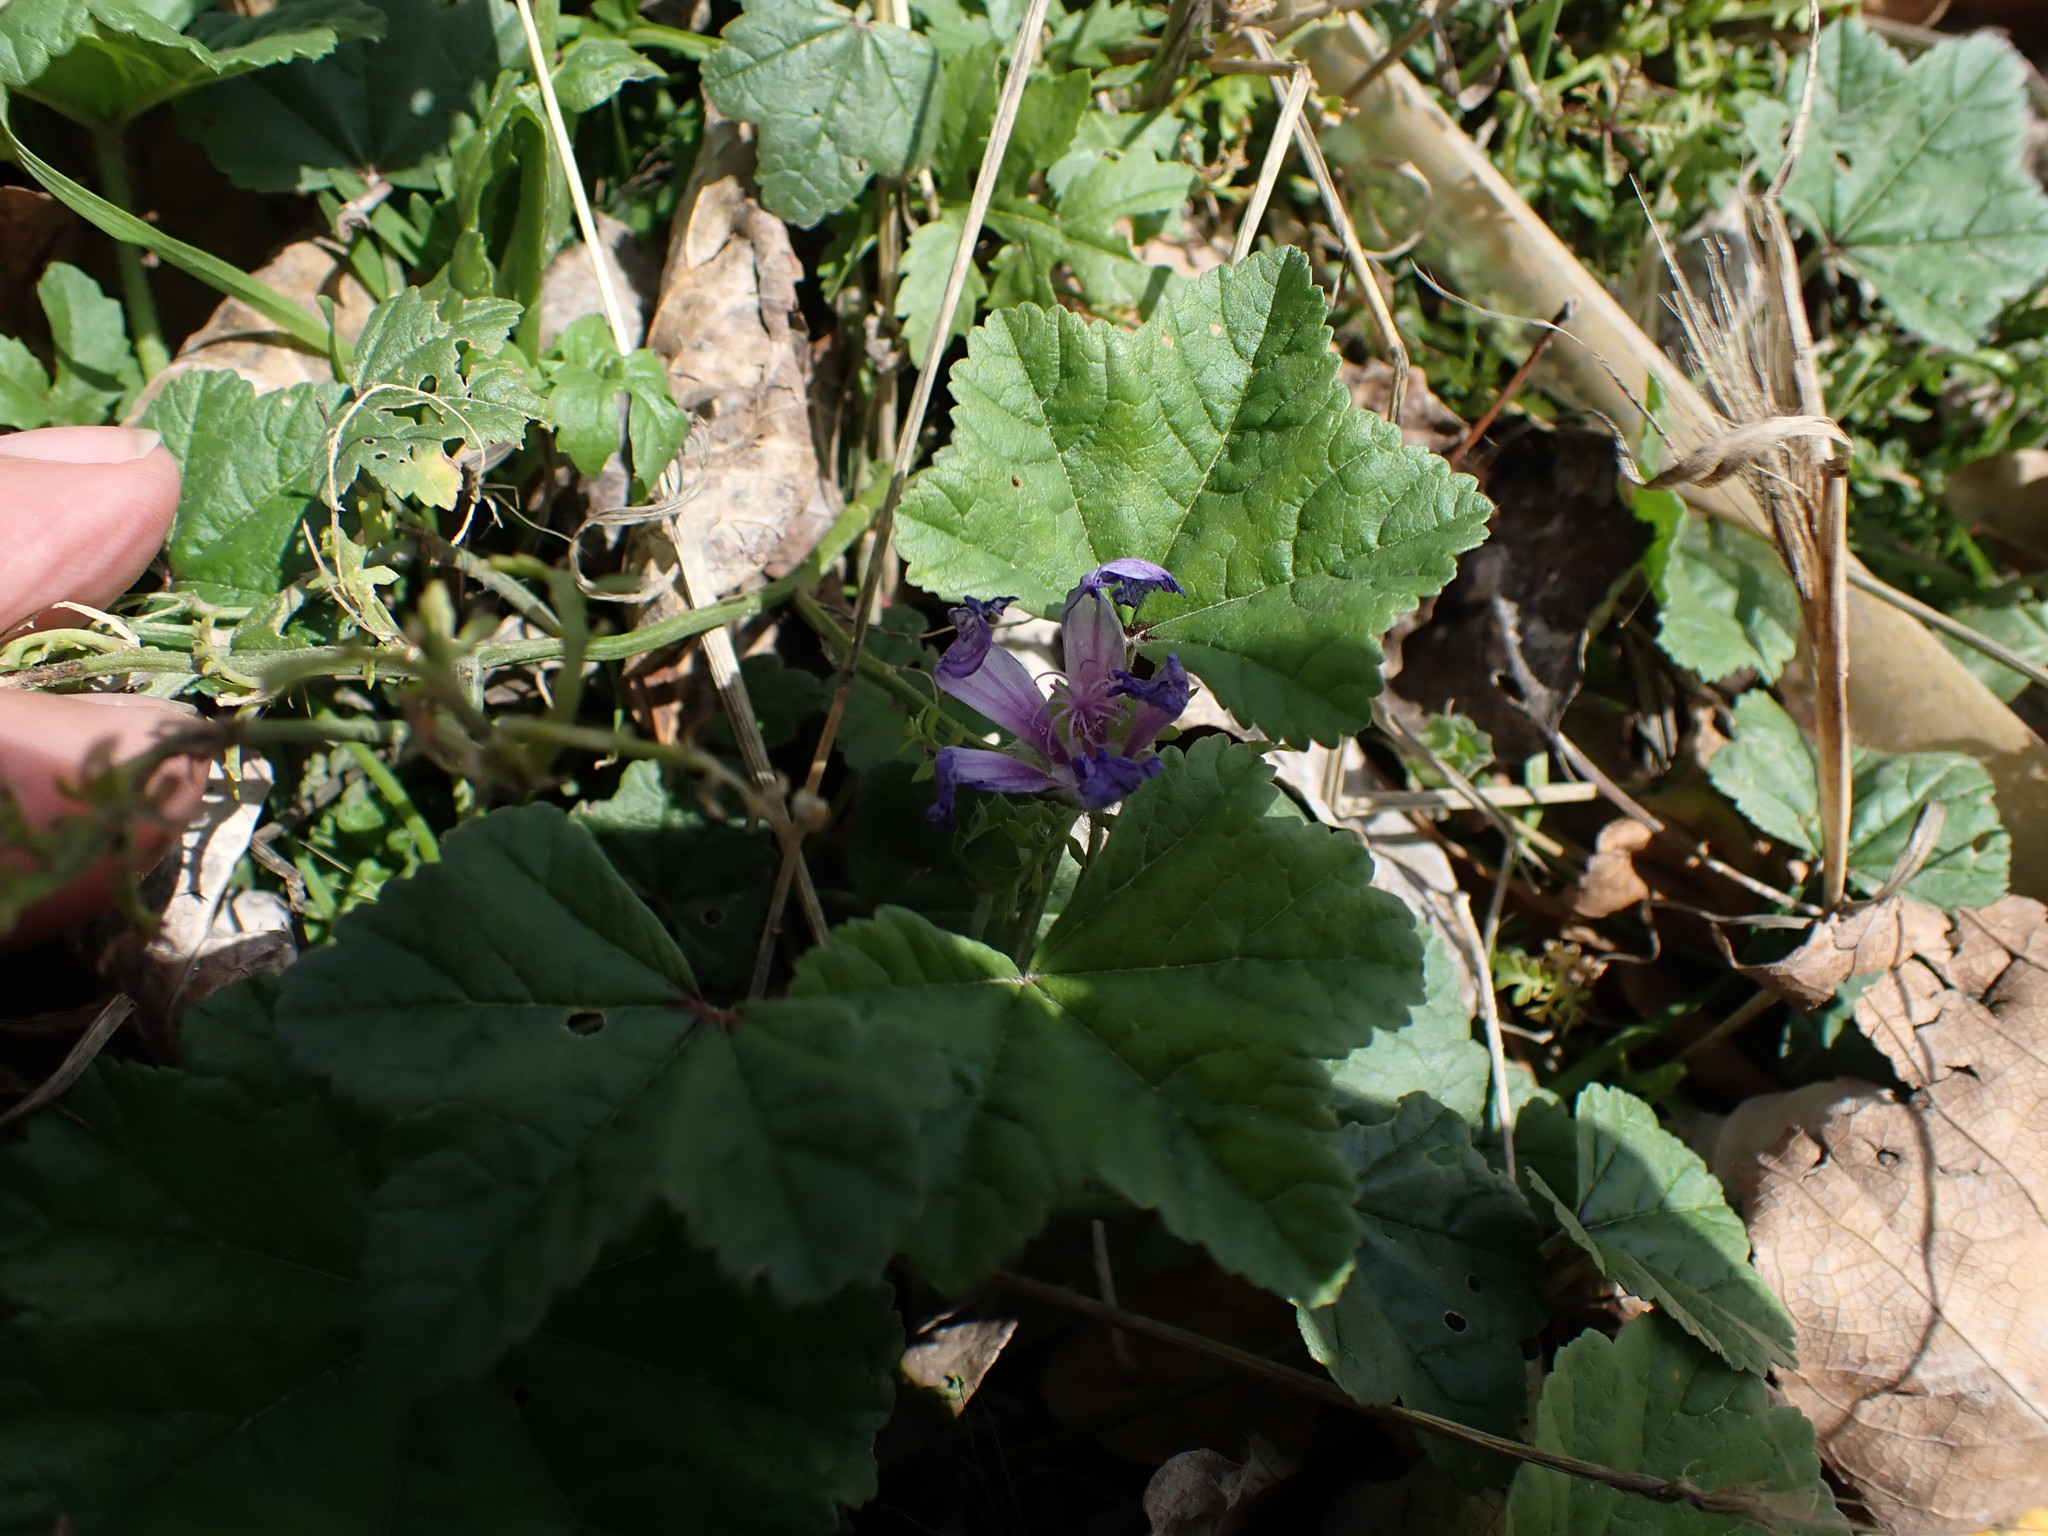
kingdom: Plantae
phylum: Tracheophyta
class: Magnoliopsida
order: Malvales
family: Malvaceae
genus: Malva
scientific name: Malva sylvestris
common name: Common mallow
